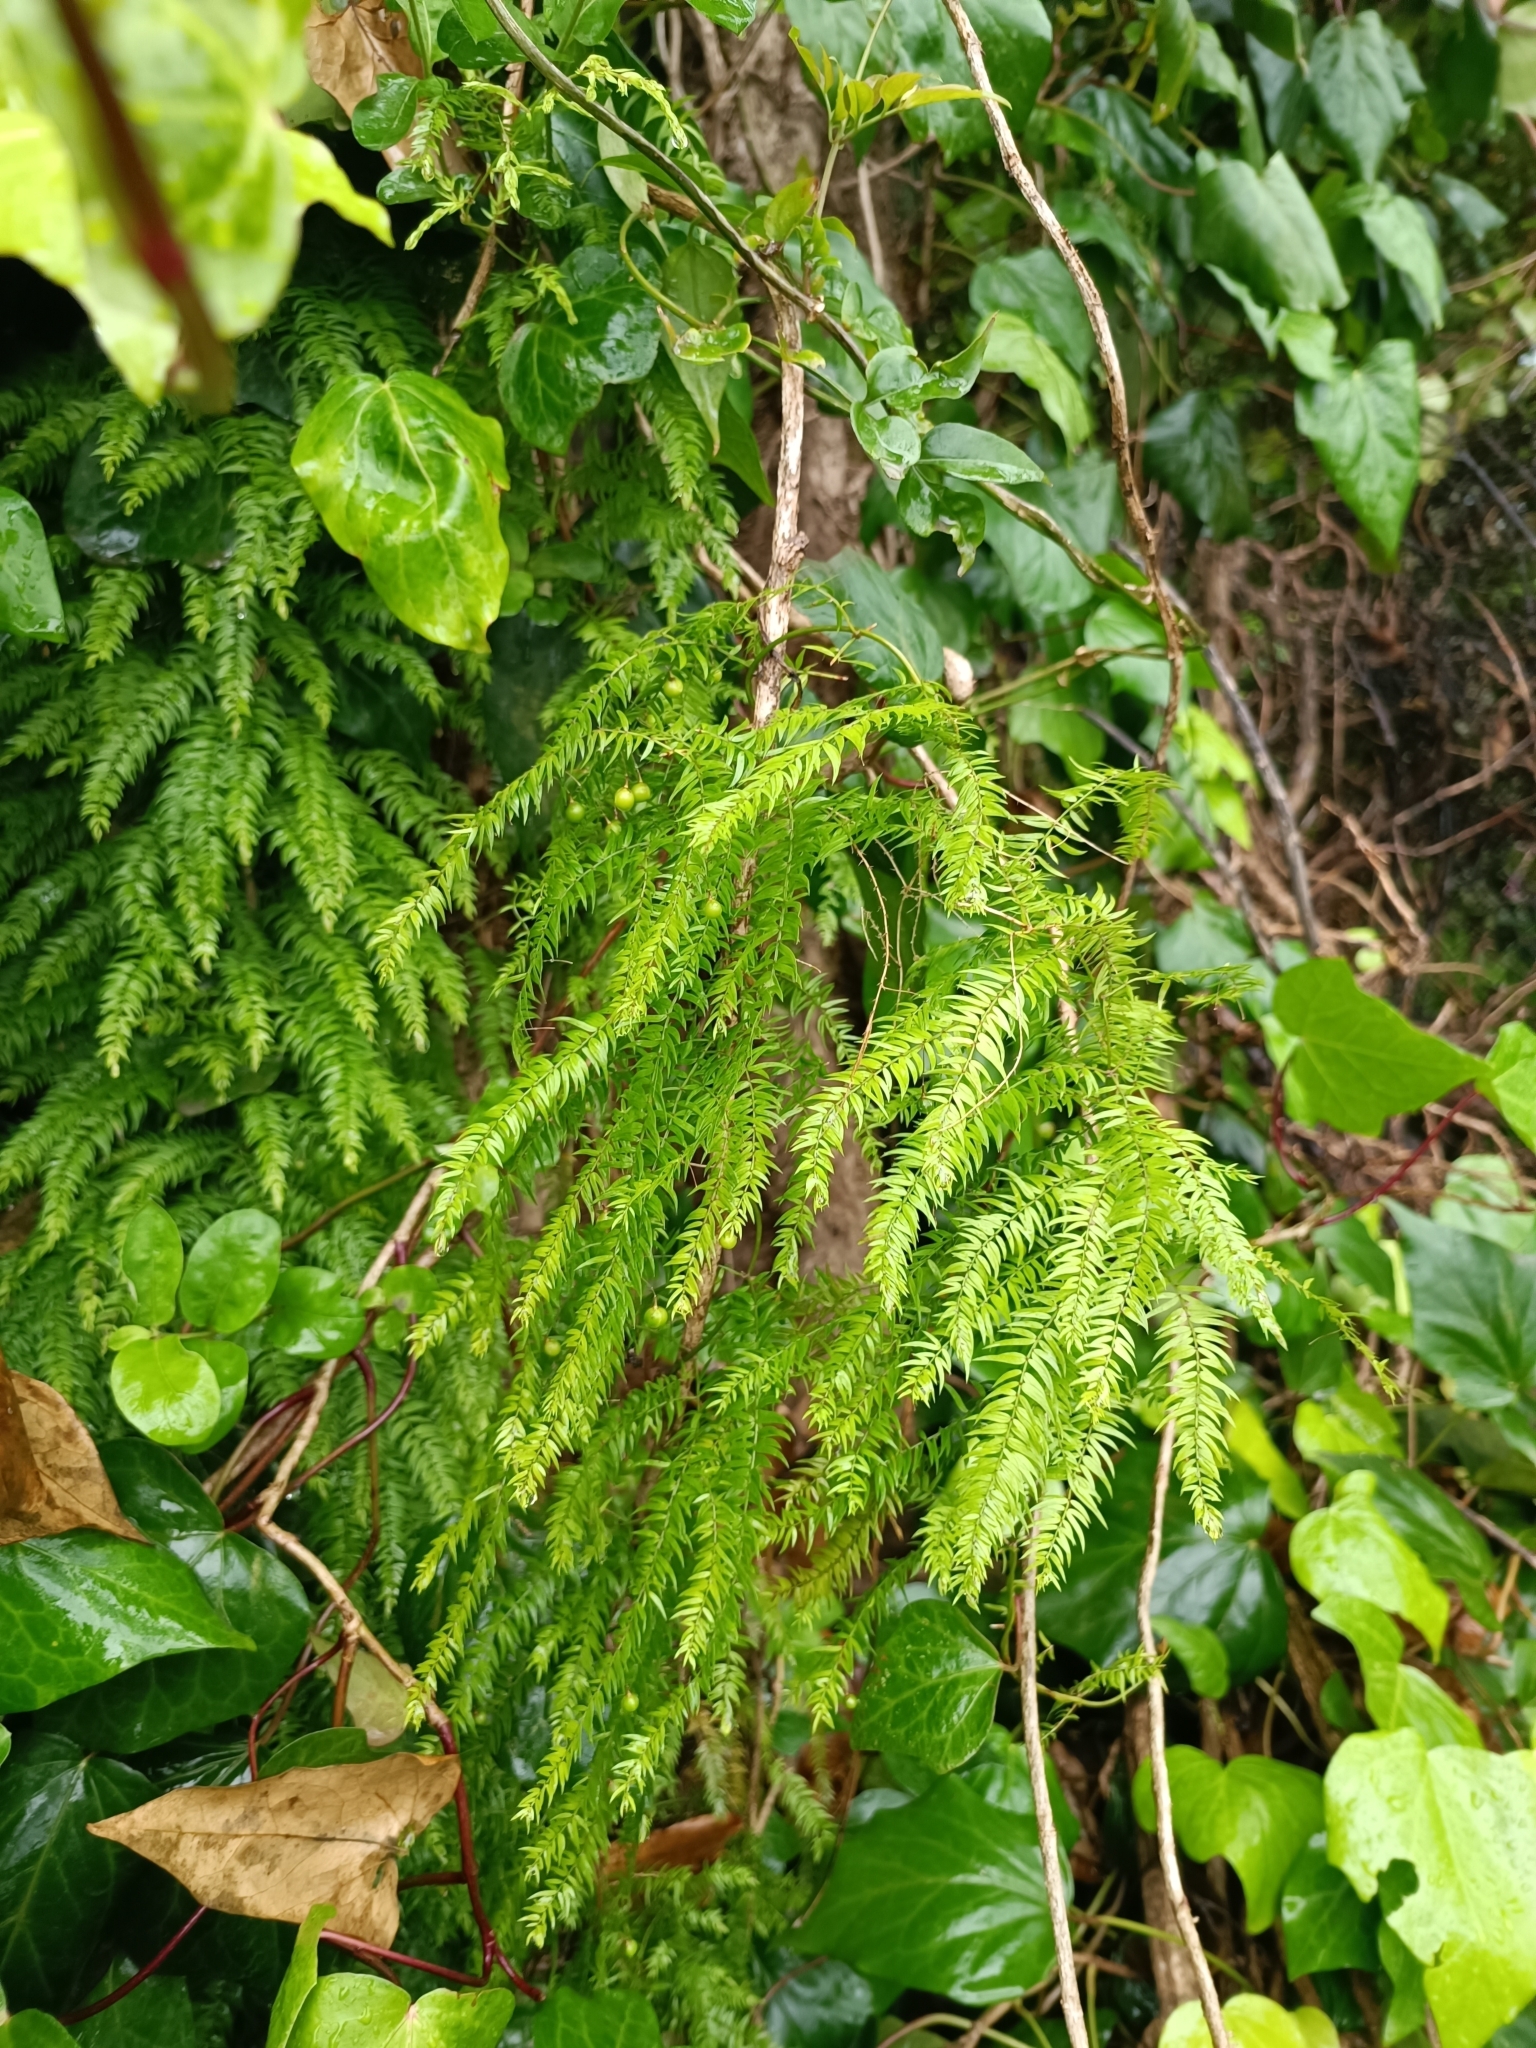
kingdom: Plantae
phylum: Tracheophyta
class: Liliopsida
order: Asparagales
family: Asparagaceae
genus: Asparagus
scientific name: Asparagus scandens
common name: Asparagus-fern
